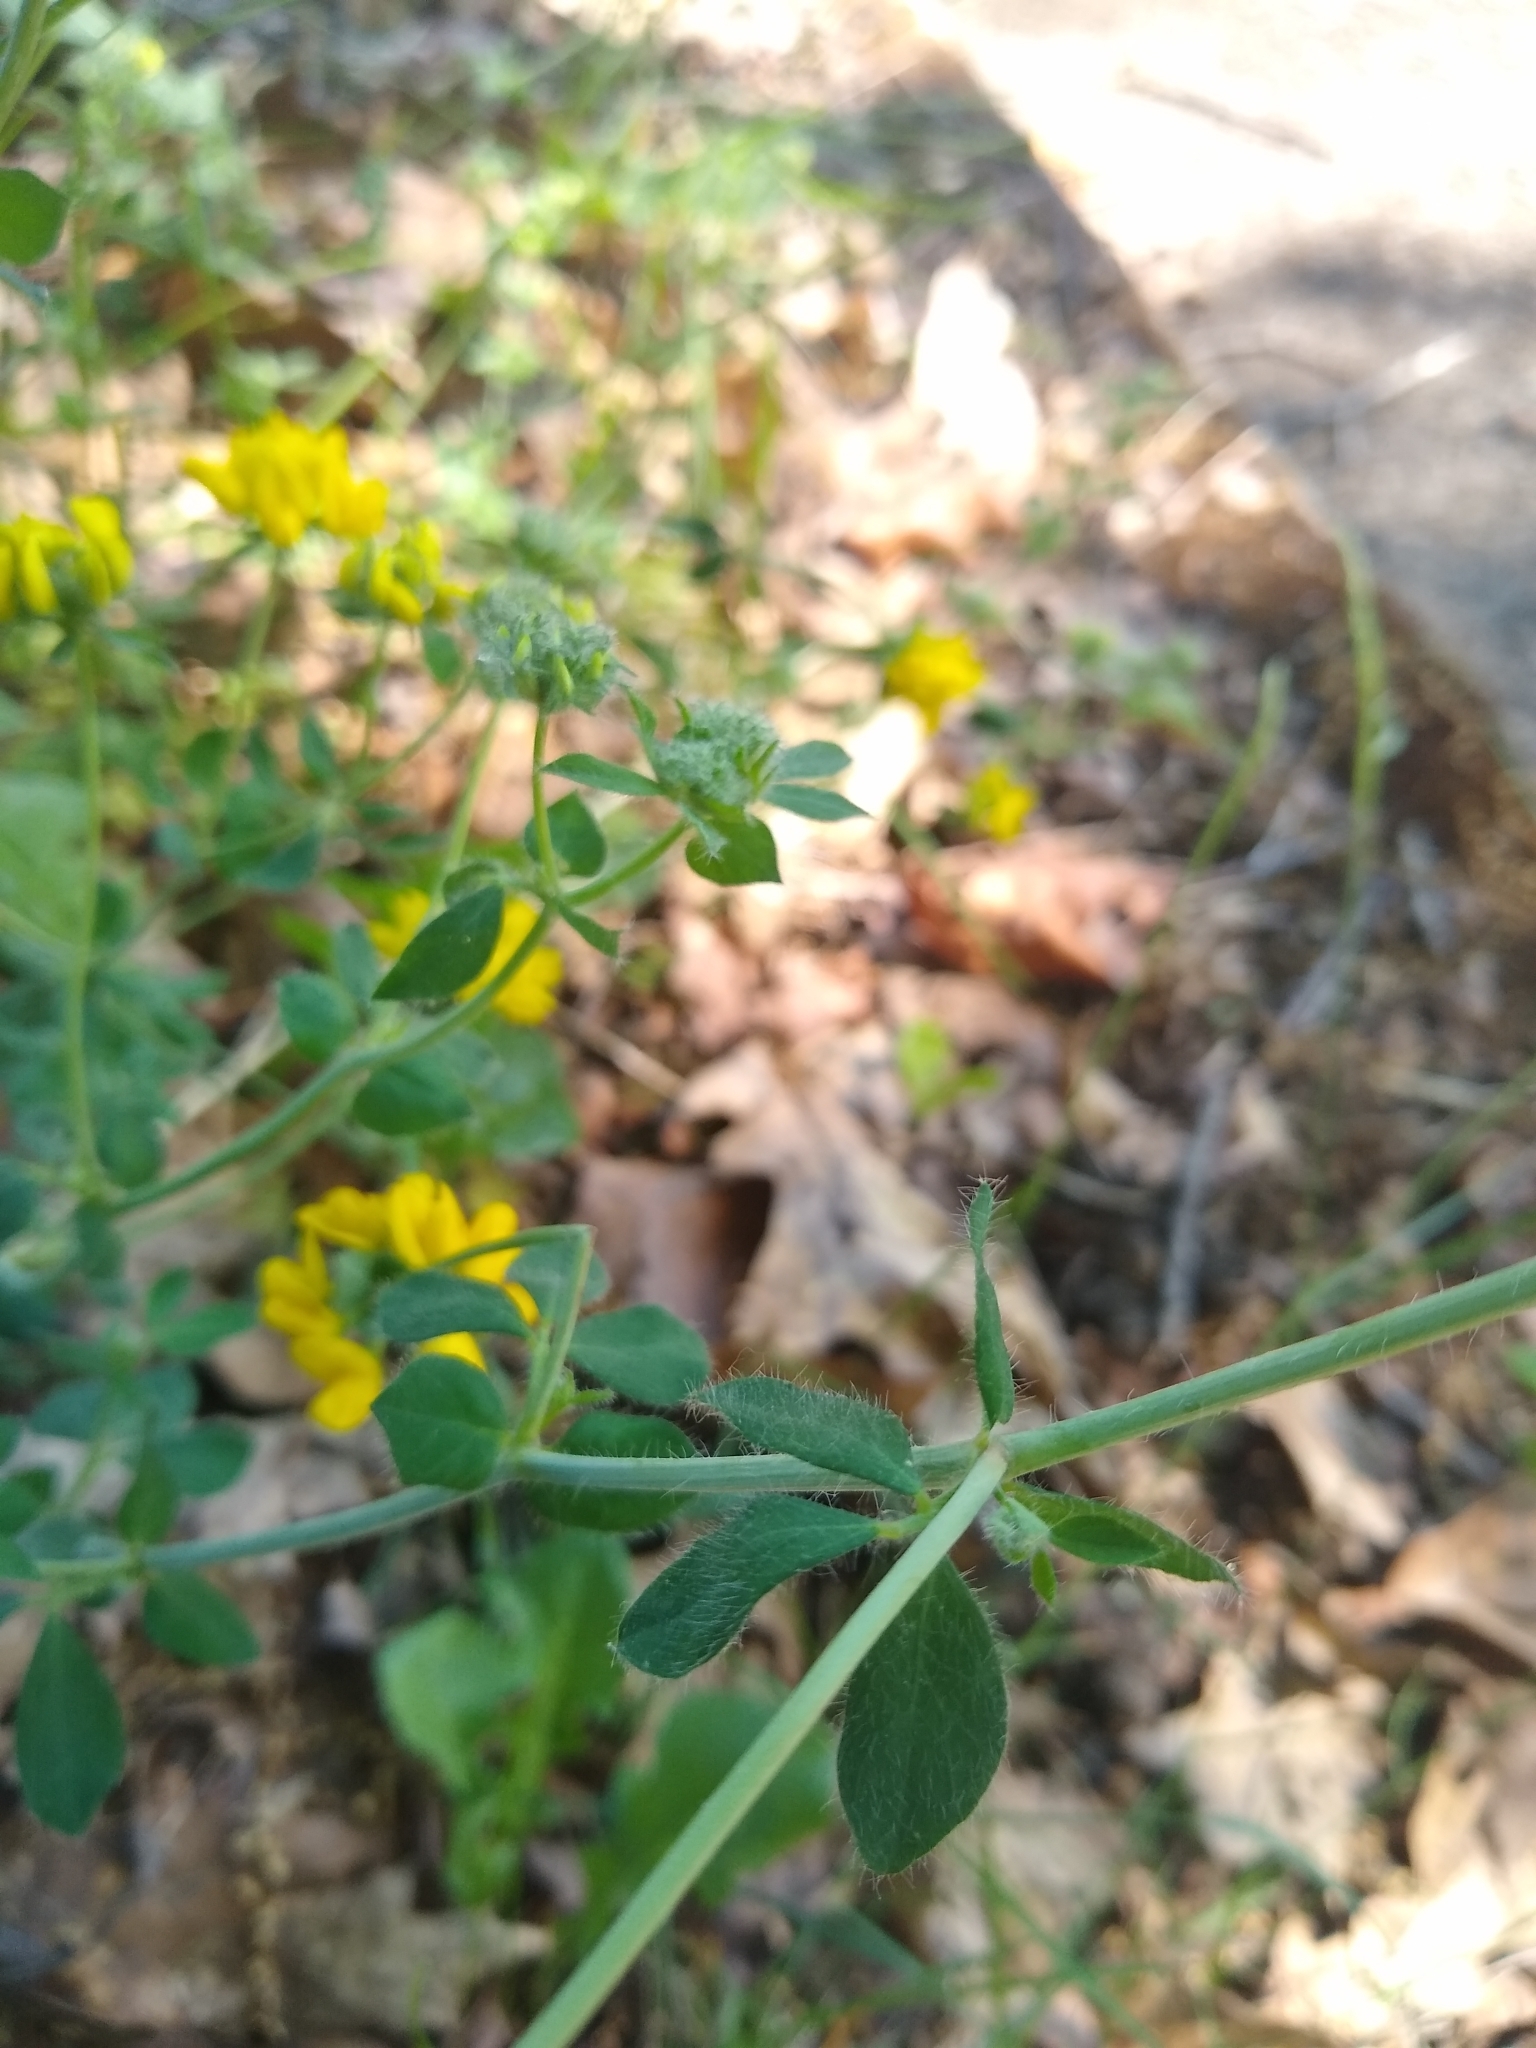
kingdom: Plantae
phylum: Tracheophyta
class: Magnoliopsida
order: Fabales
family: Fabaceae
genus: Lotus
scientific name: Lotus
